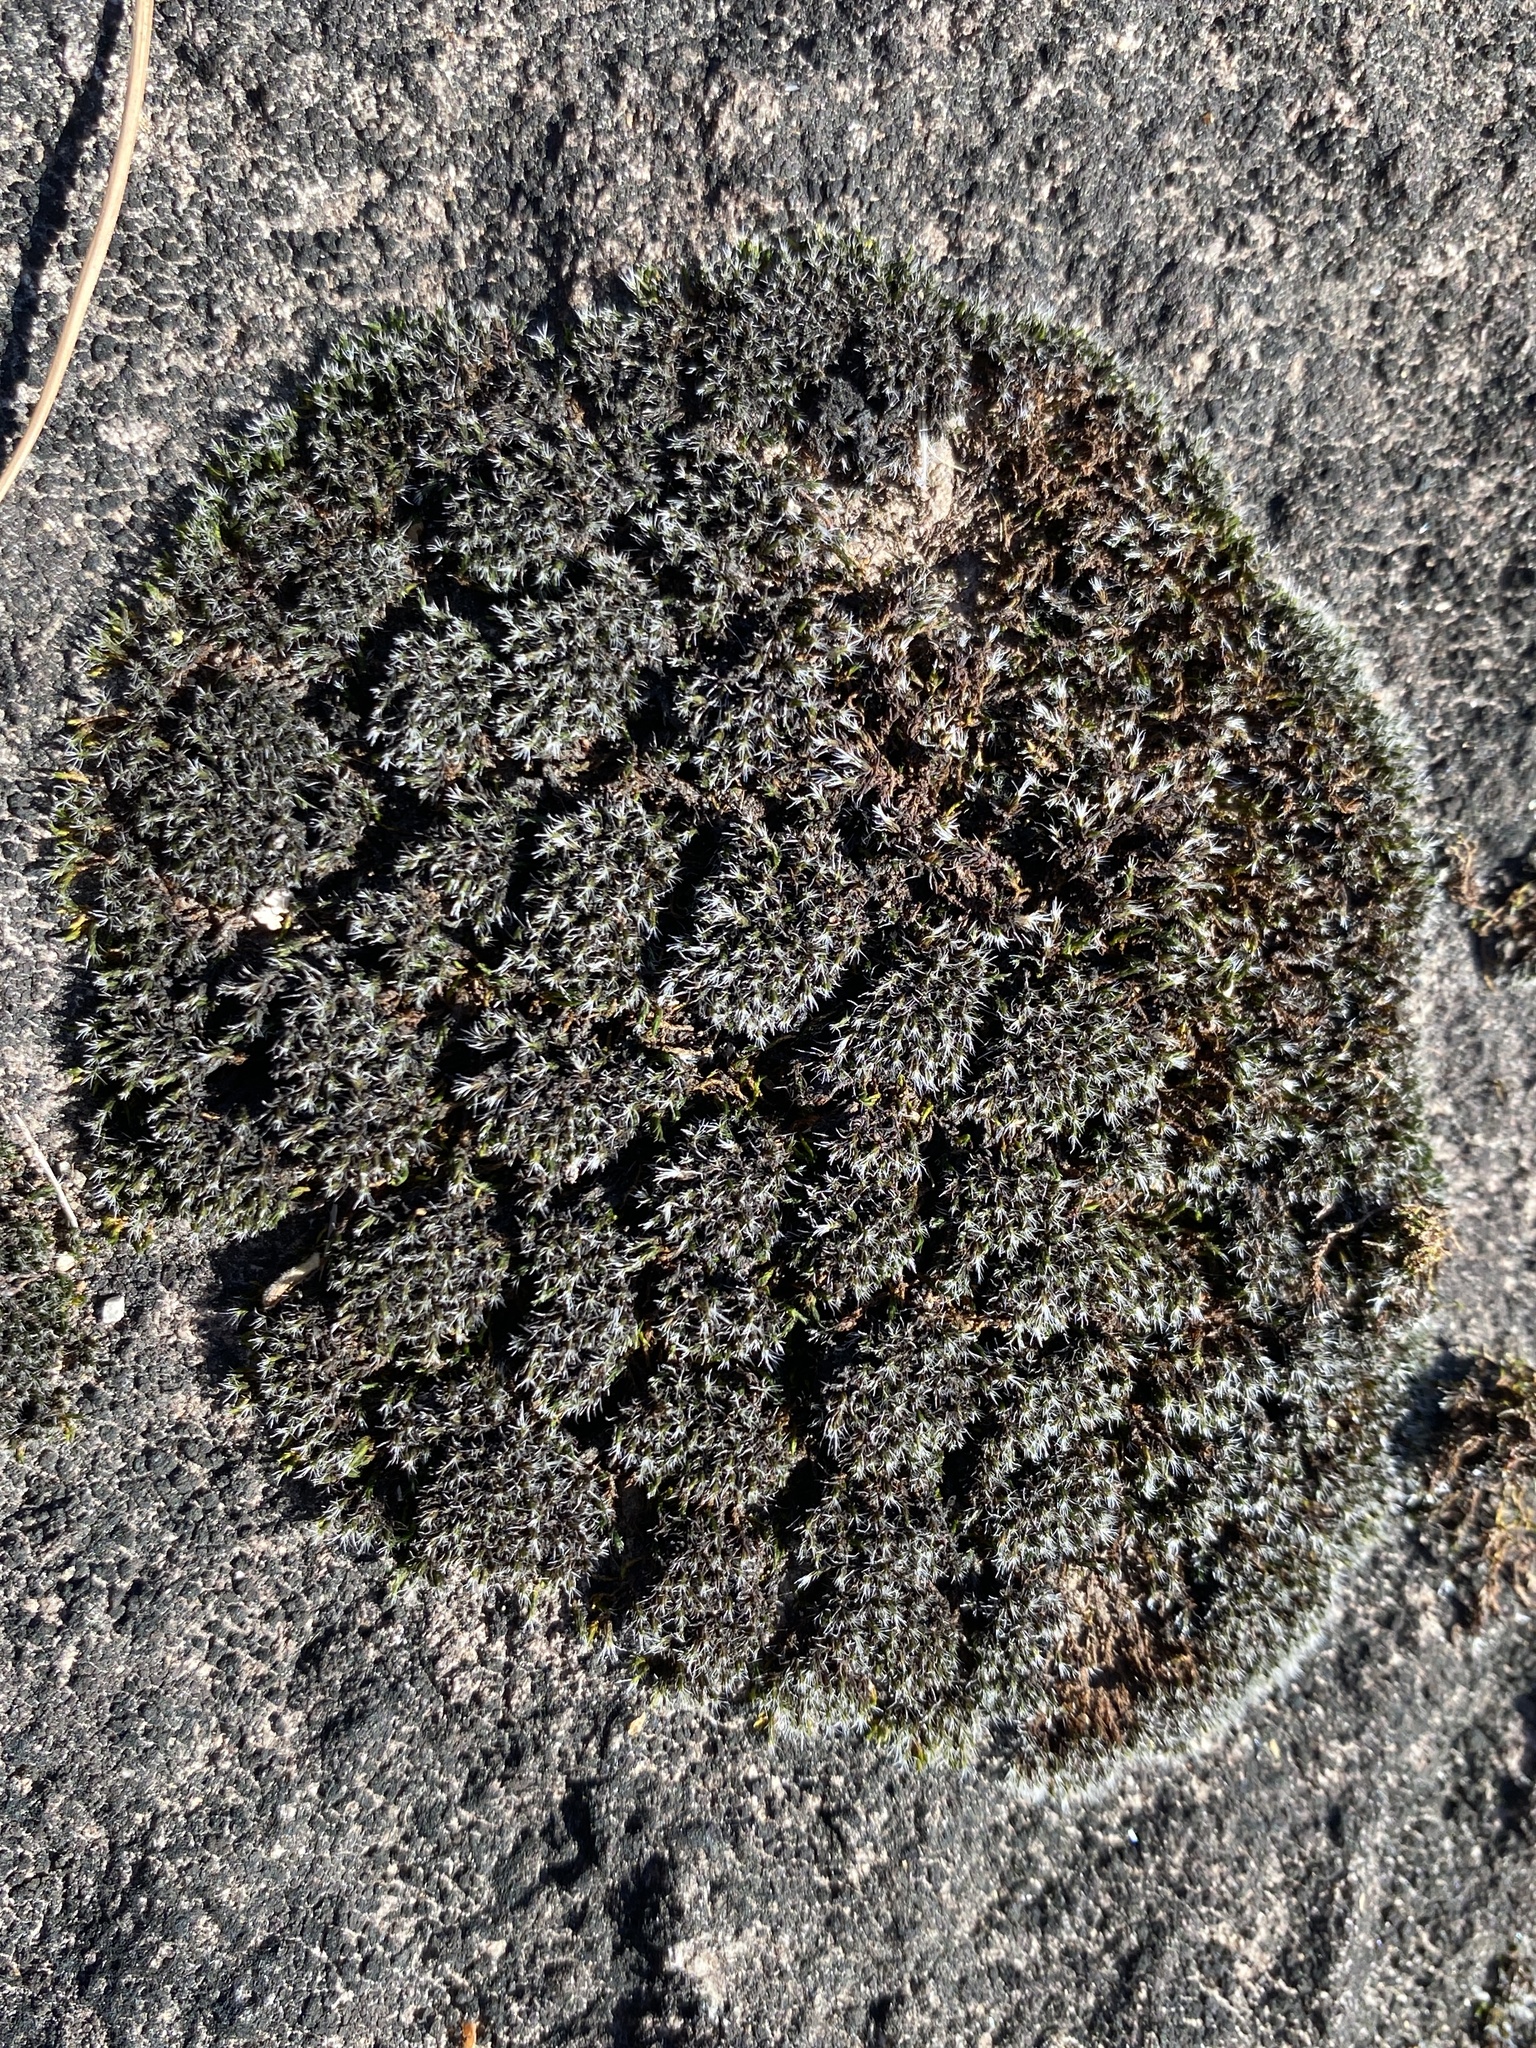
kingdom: Plantae
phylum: Bryophyta
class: Bryopsida
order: Grimmiales
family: Grimmiaceae
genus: Grimmia
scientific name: Grimmia laevigata
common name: Hoary grimmia
